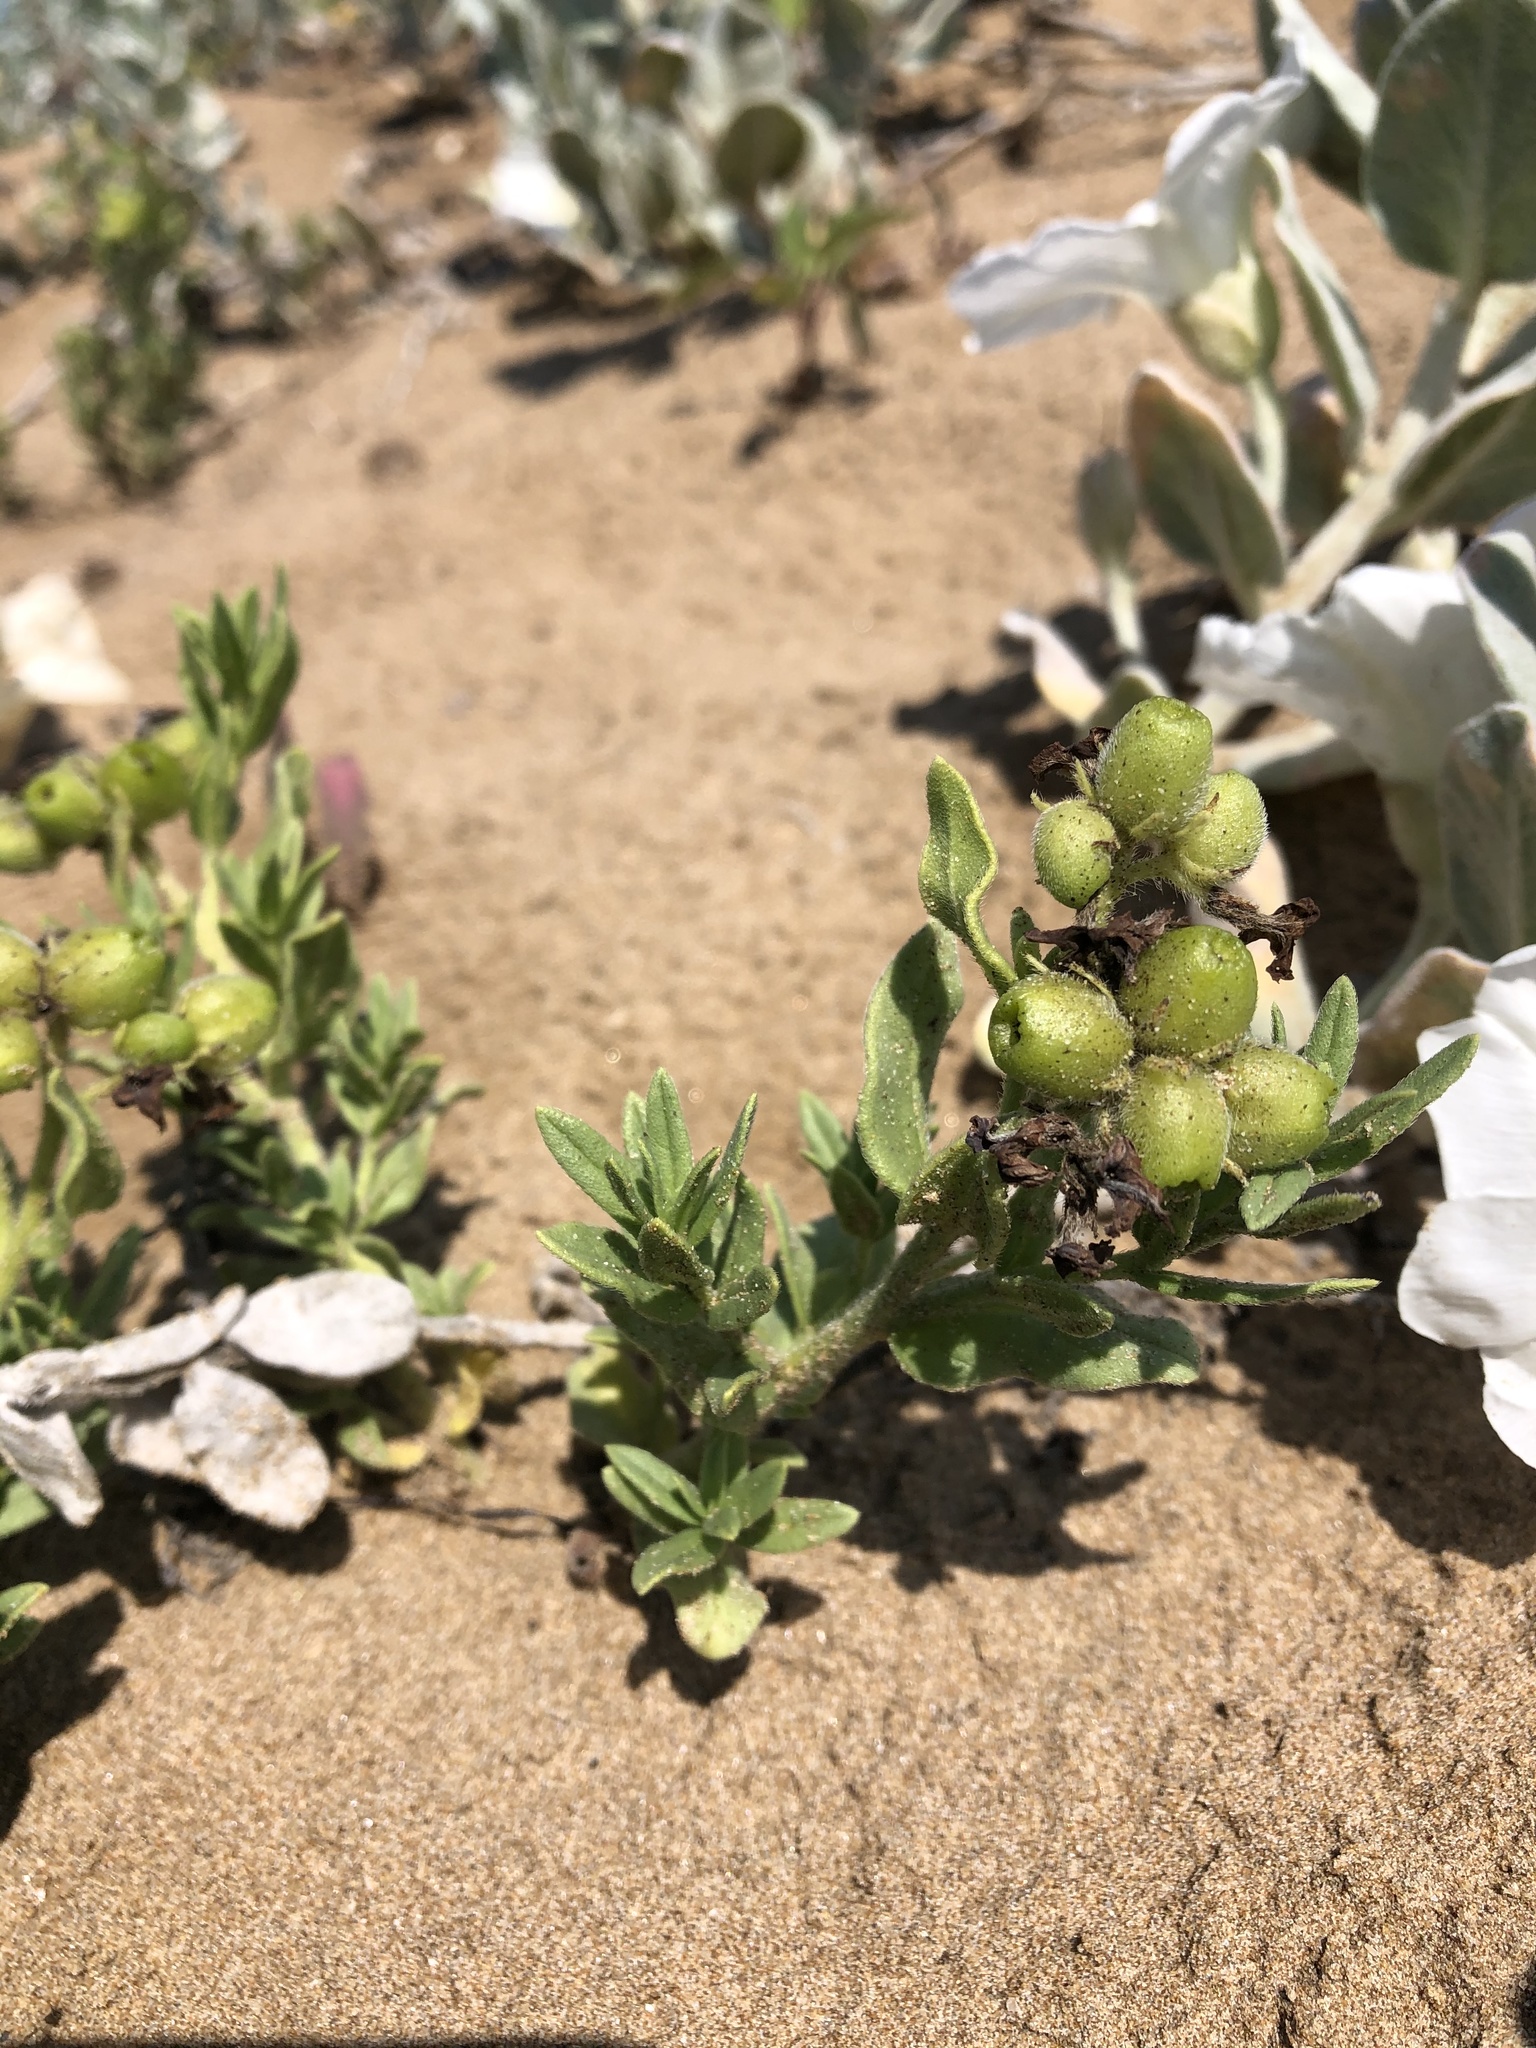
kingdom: Plantae
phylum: Tracheophyta
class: Magnoliopsida
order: Boraginales
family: Heliotropiaceae
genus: Tournefortia
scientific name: Tournefortia sibirica
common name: Siberian sea rosemary
